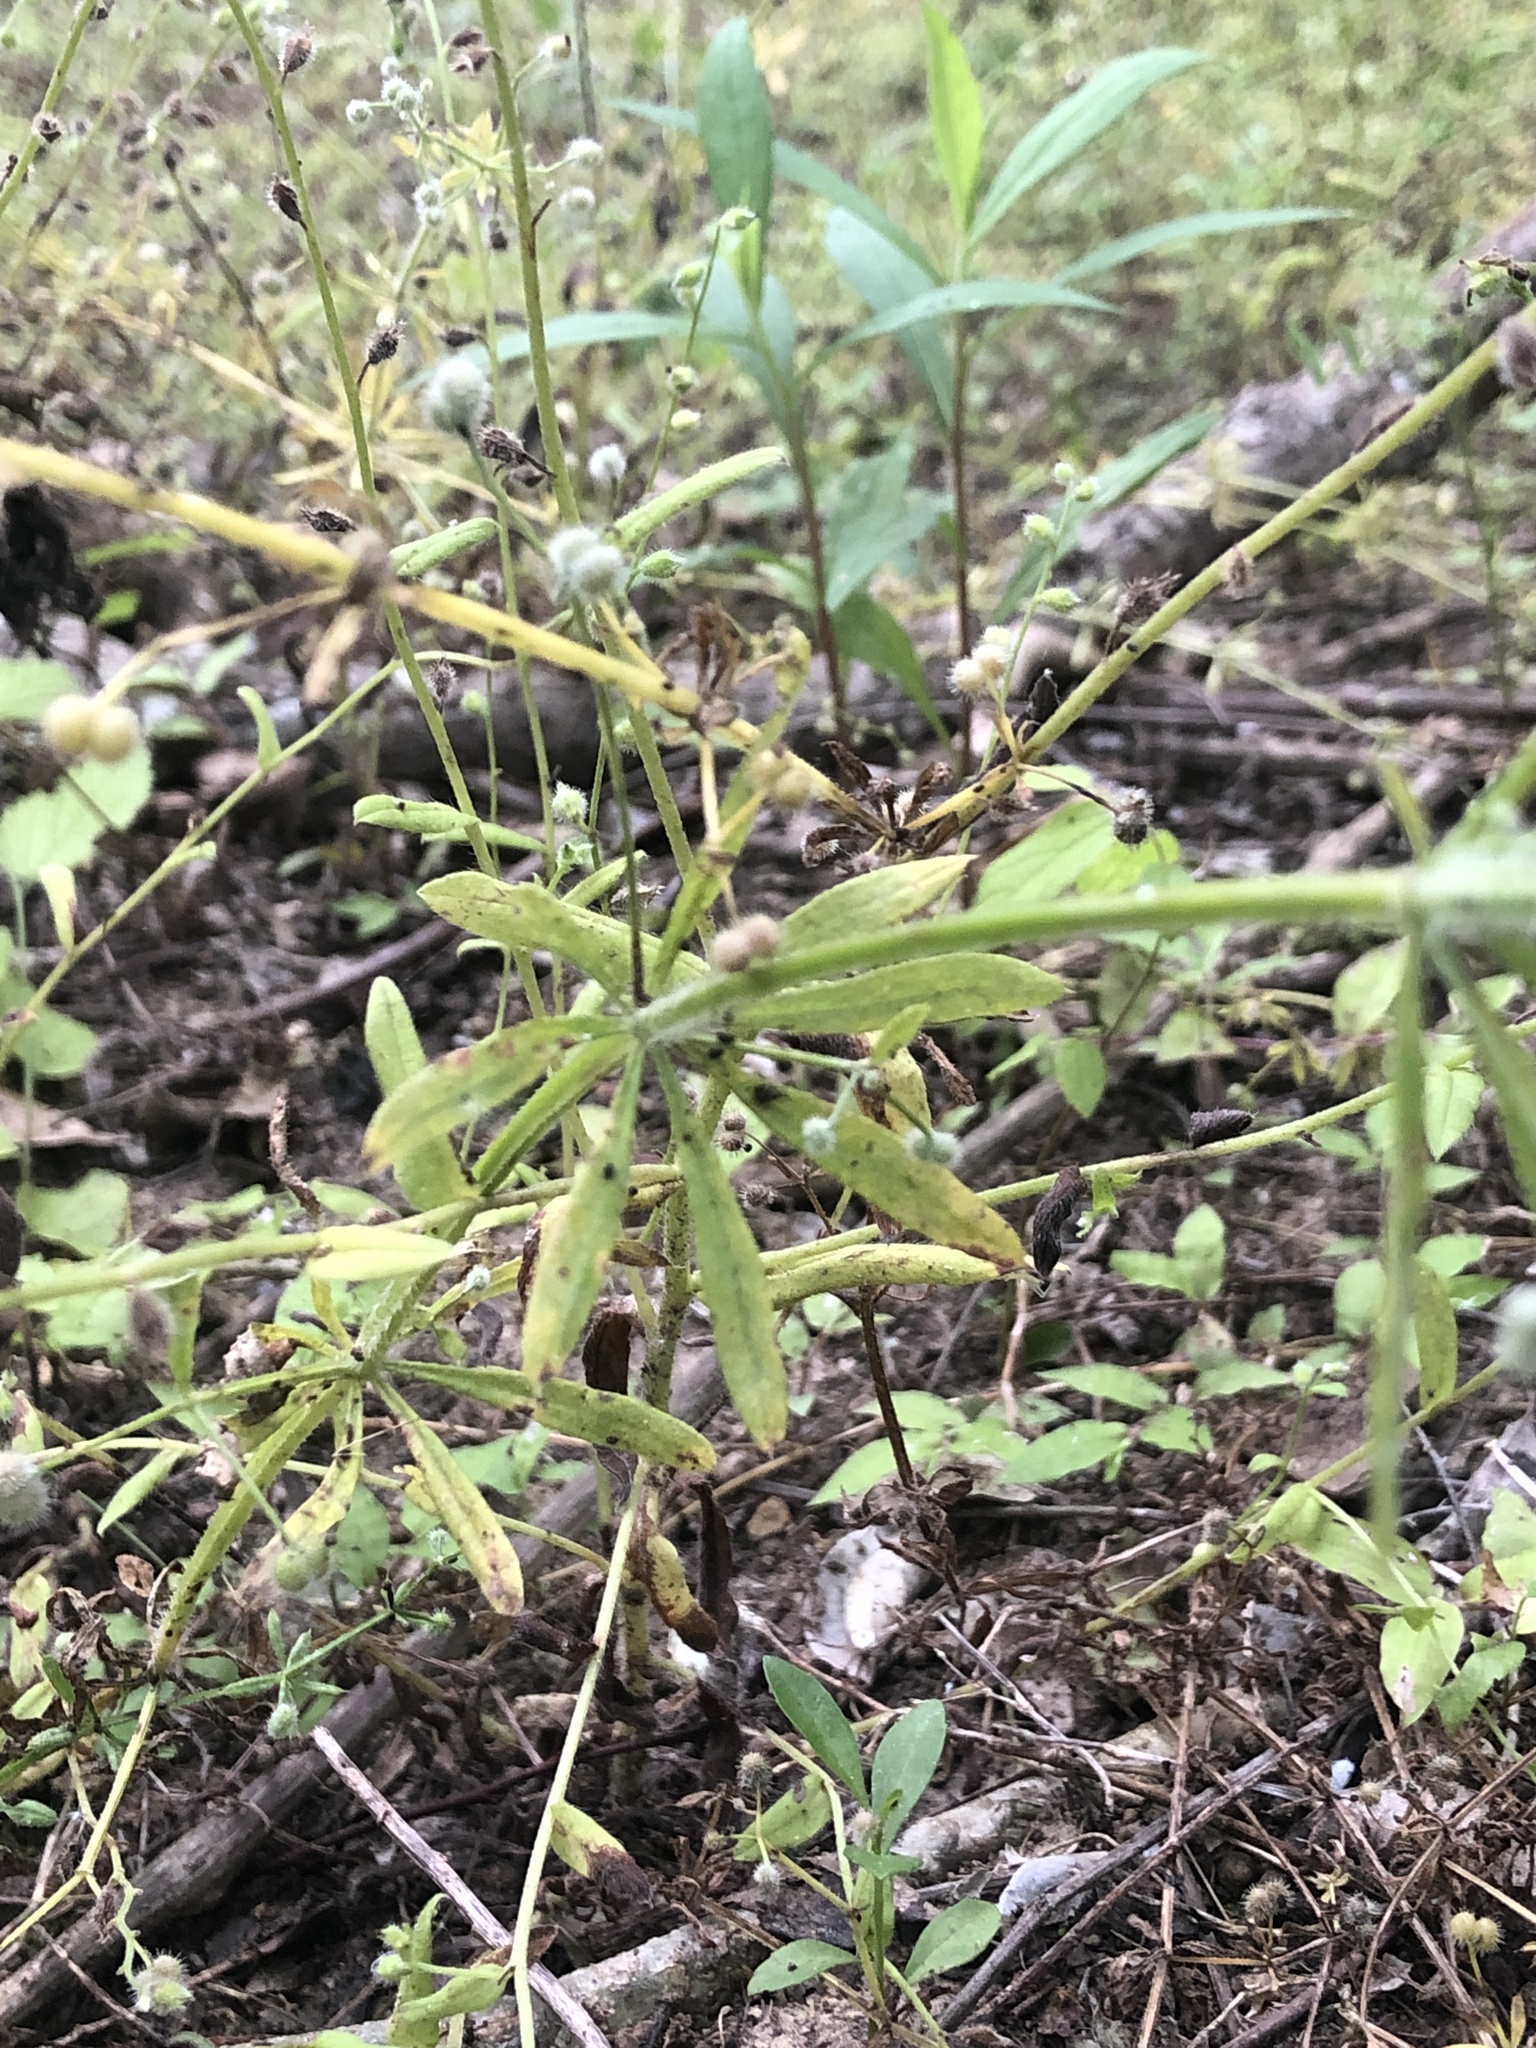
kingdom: Plantae
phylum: Tracheophyta
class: Magnoliopsida
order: Gentianales
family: Rubiaceae
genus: Galium
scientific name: Galium aparine
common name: Cleavers
